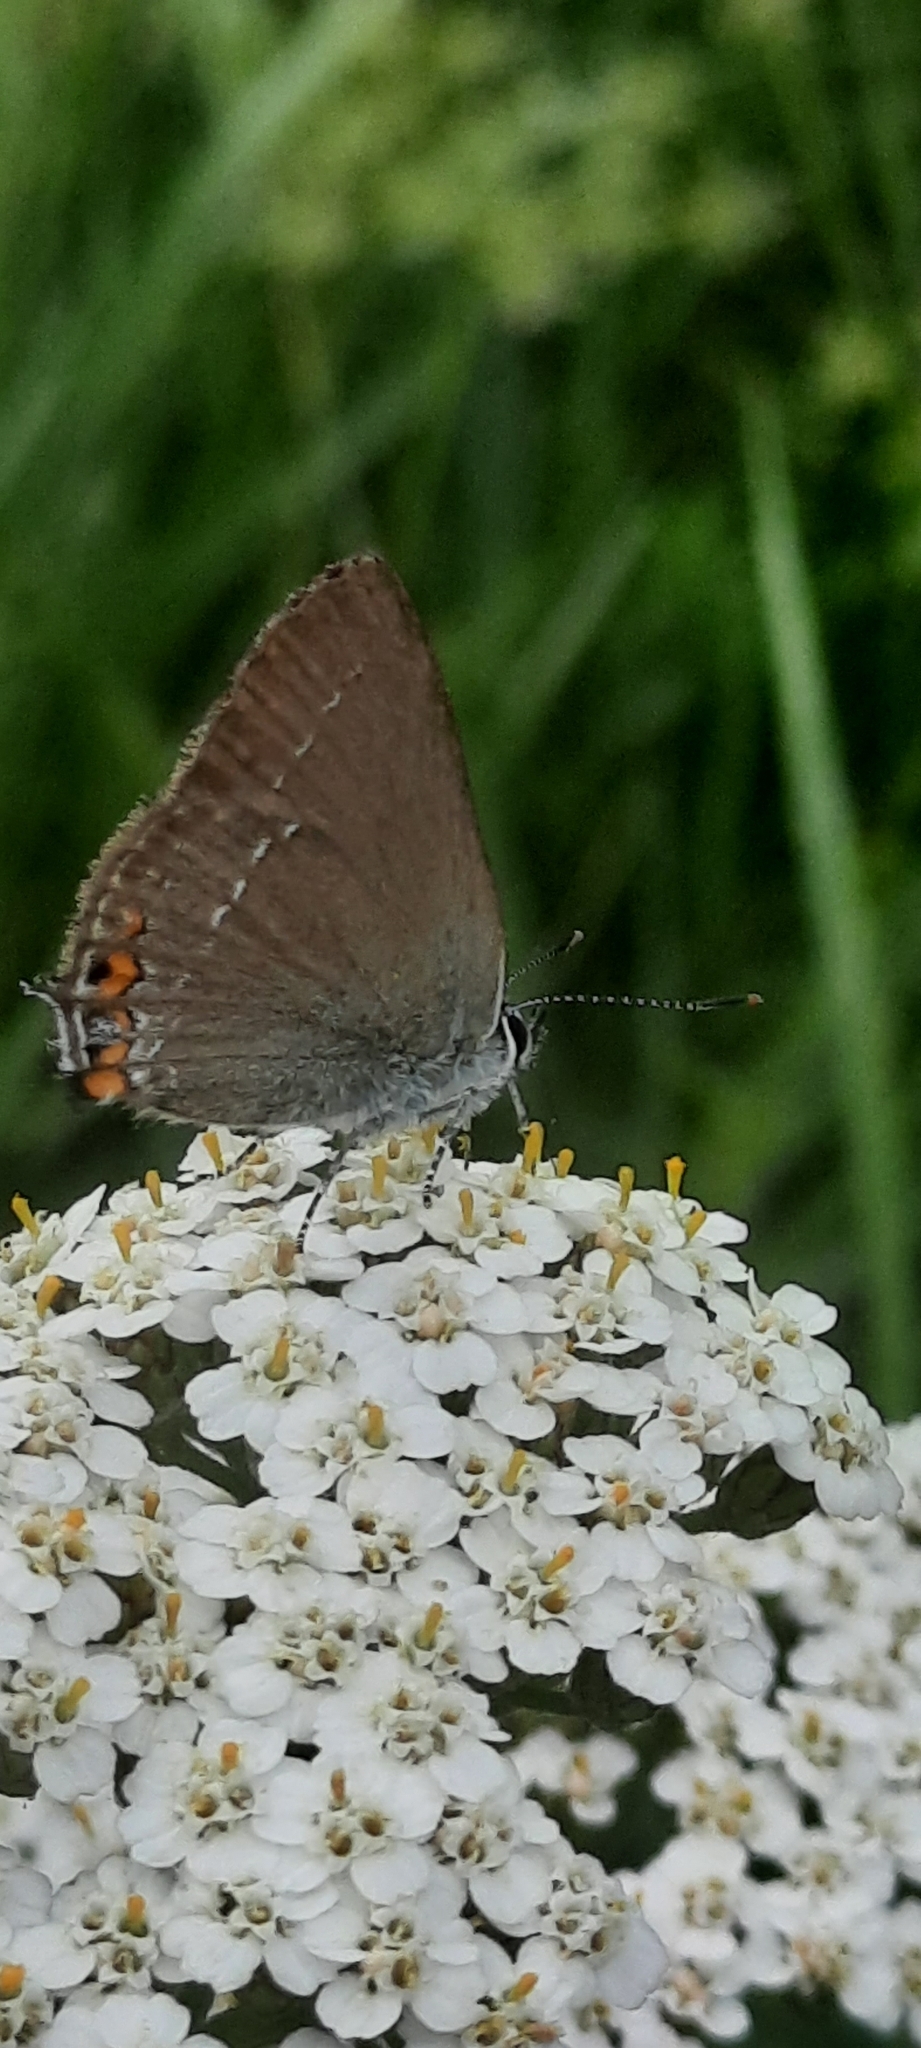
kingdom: Animalia
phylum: Arthropoda
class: Insecta
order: Lepidoptera
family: Lycaenidae
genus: Strymon
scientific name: Strymon acaciae
